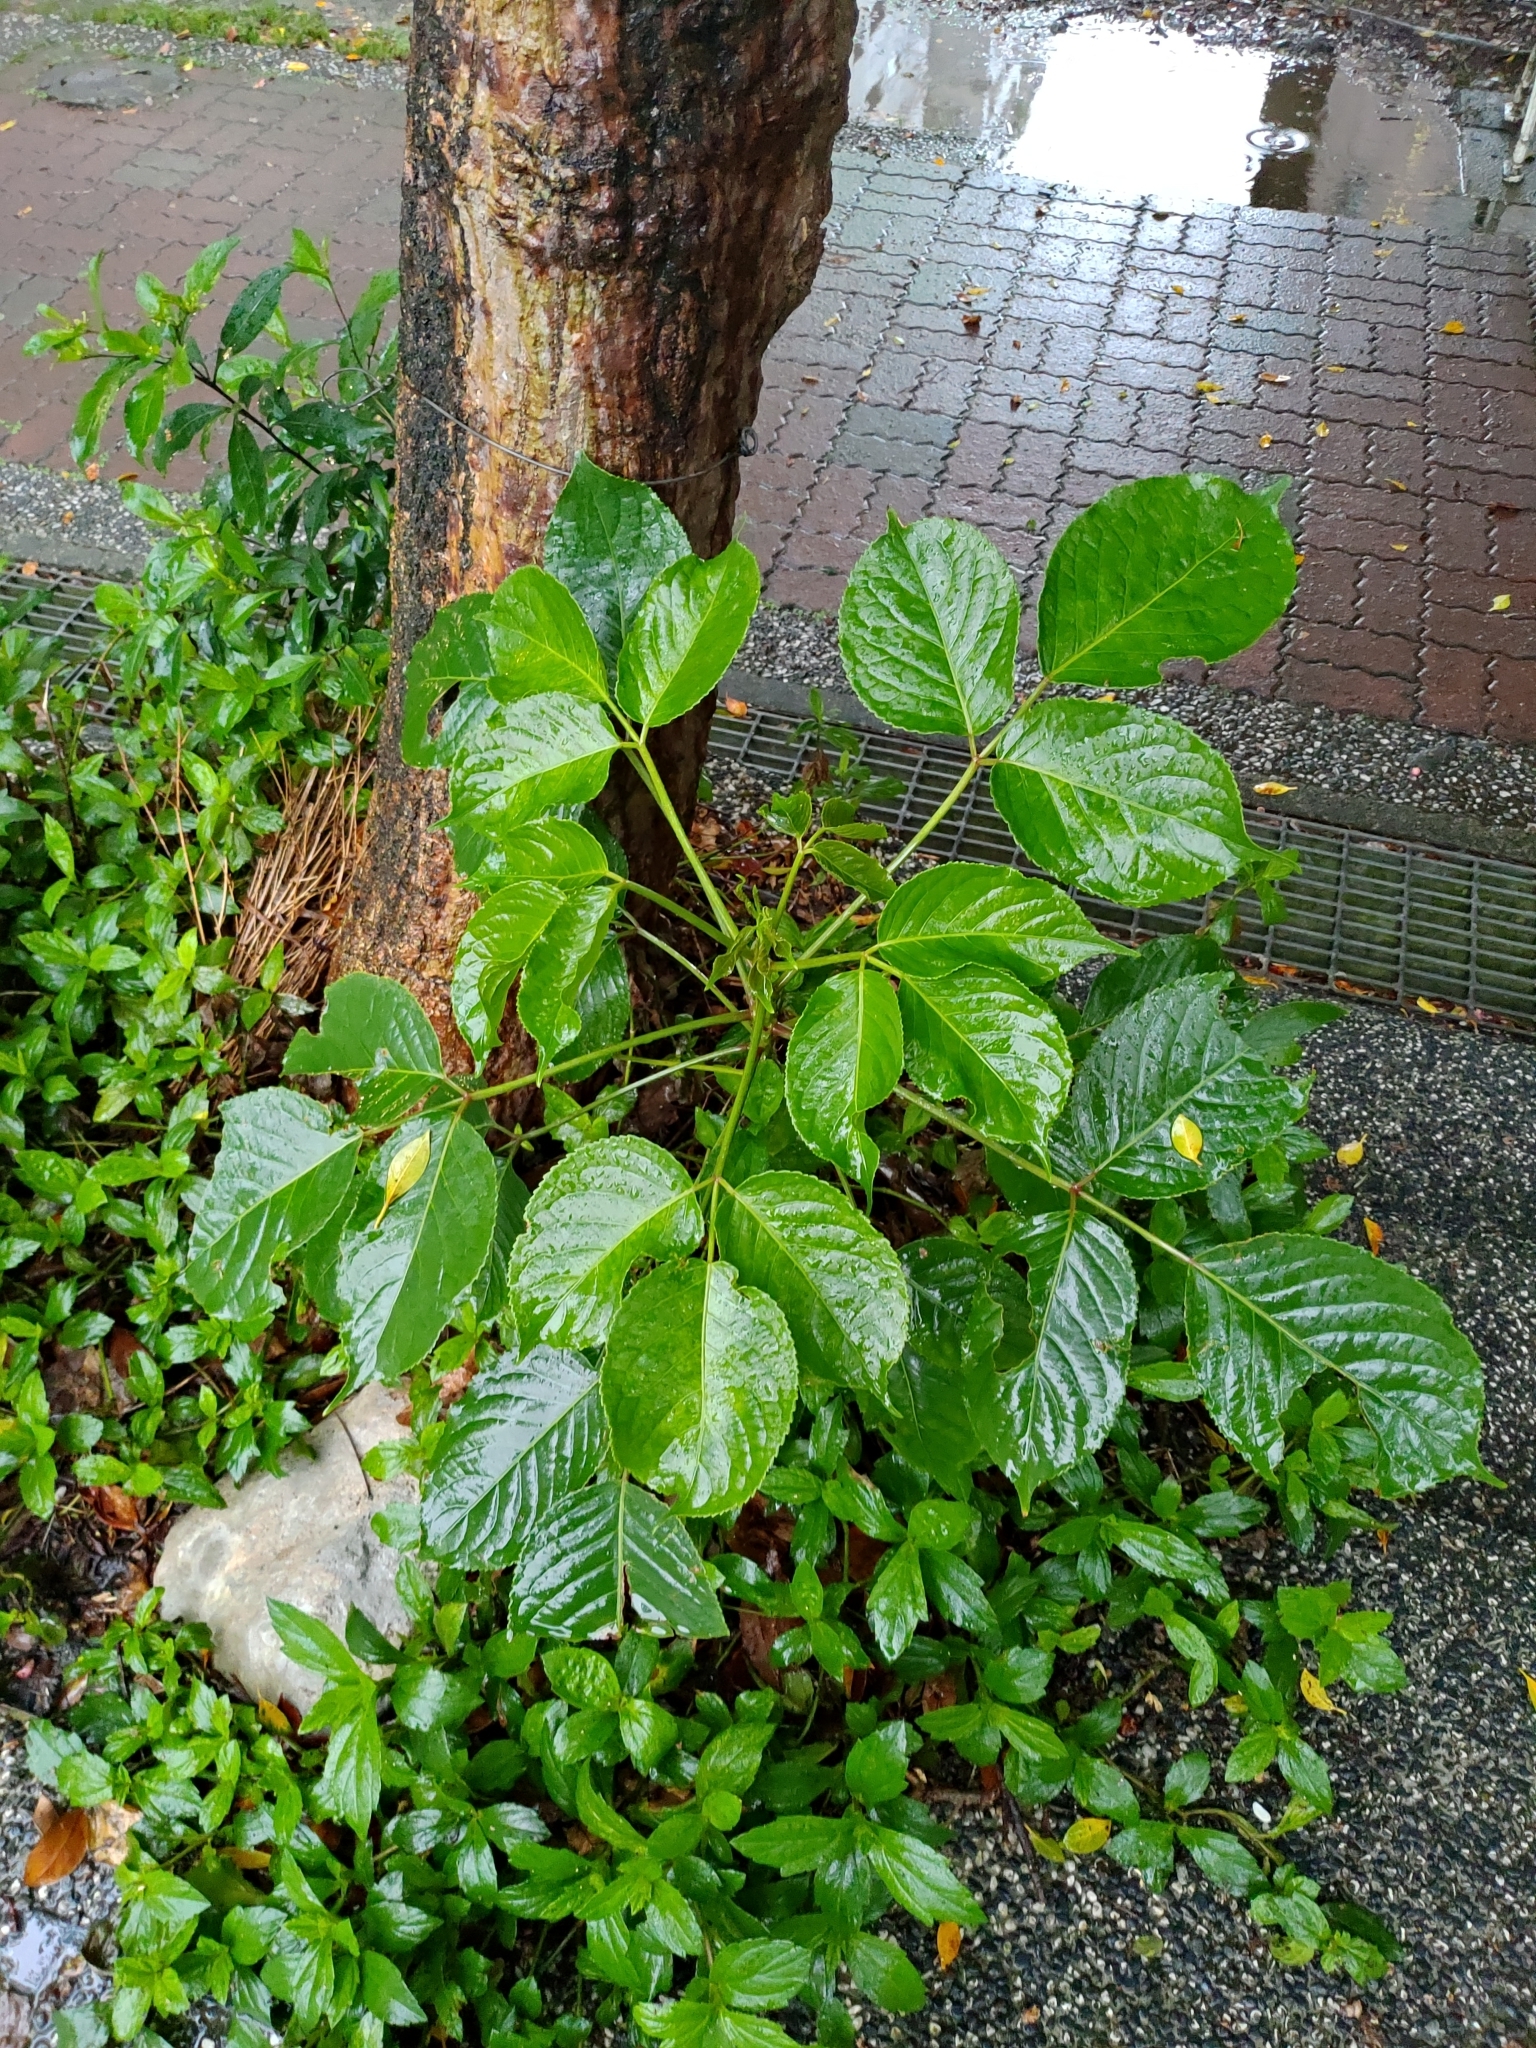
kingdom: Plantae
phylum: Tracheophyta
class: Magnoliopsida
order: Malpighiales
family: Phyllanthaceae
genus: Bischofia
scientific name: Bischofia javanica
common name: Javanese bishopwood
